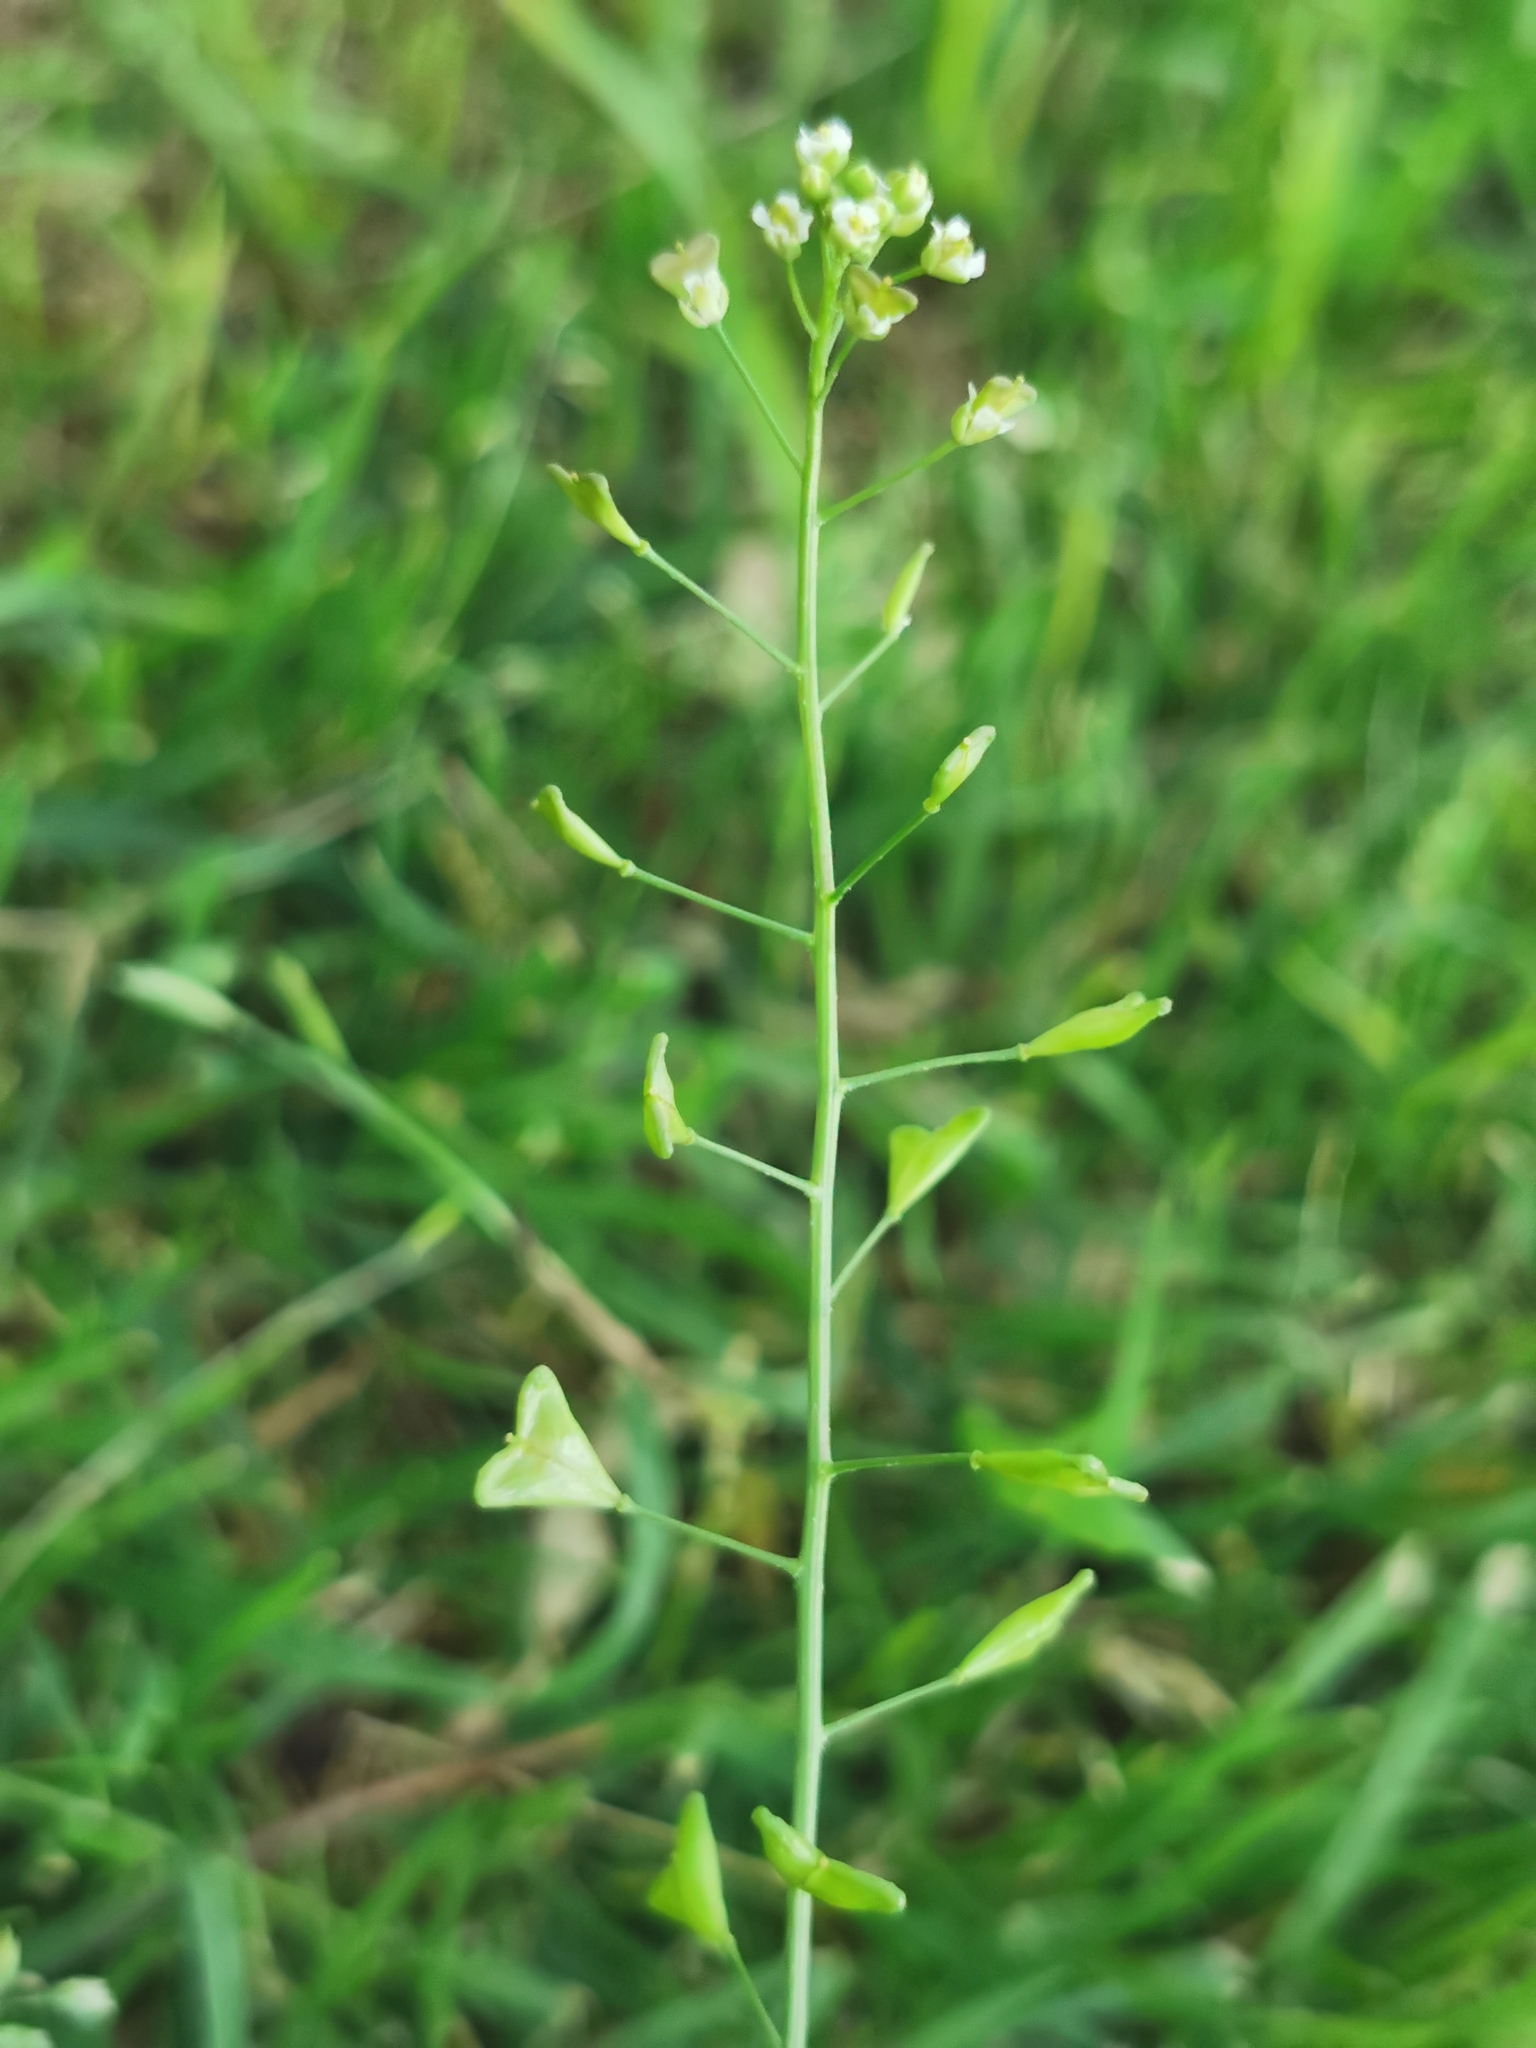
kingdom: Plantae
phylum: Tracheophyta
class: Magnoliopsida
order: Brassicales
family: Brassicaceae
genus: Capsella
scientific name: Capsella bursa-pastoris
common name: Shepherd's purse
